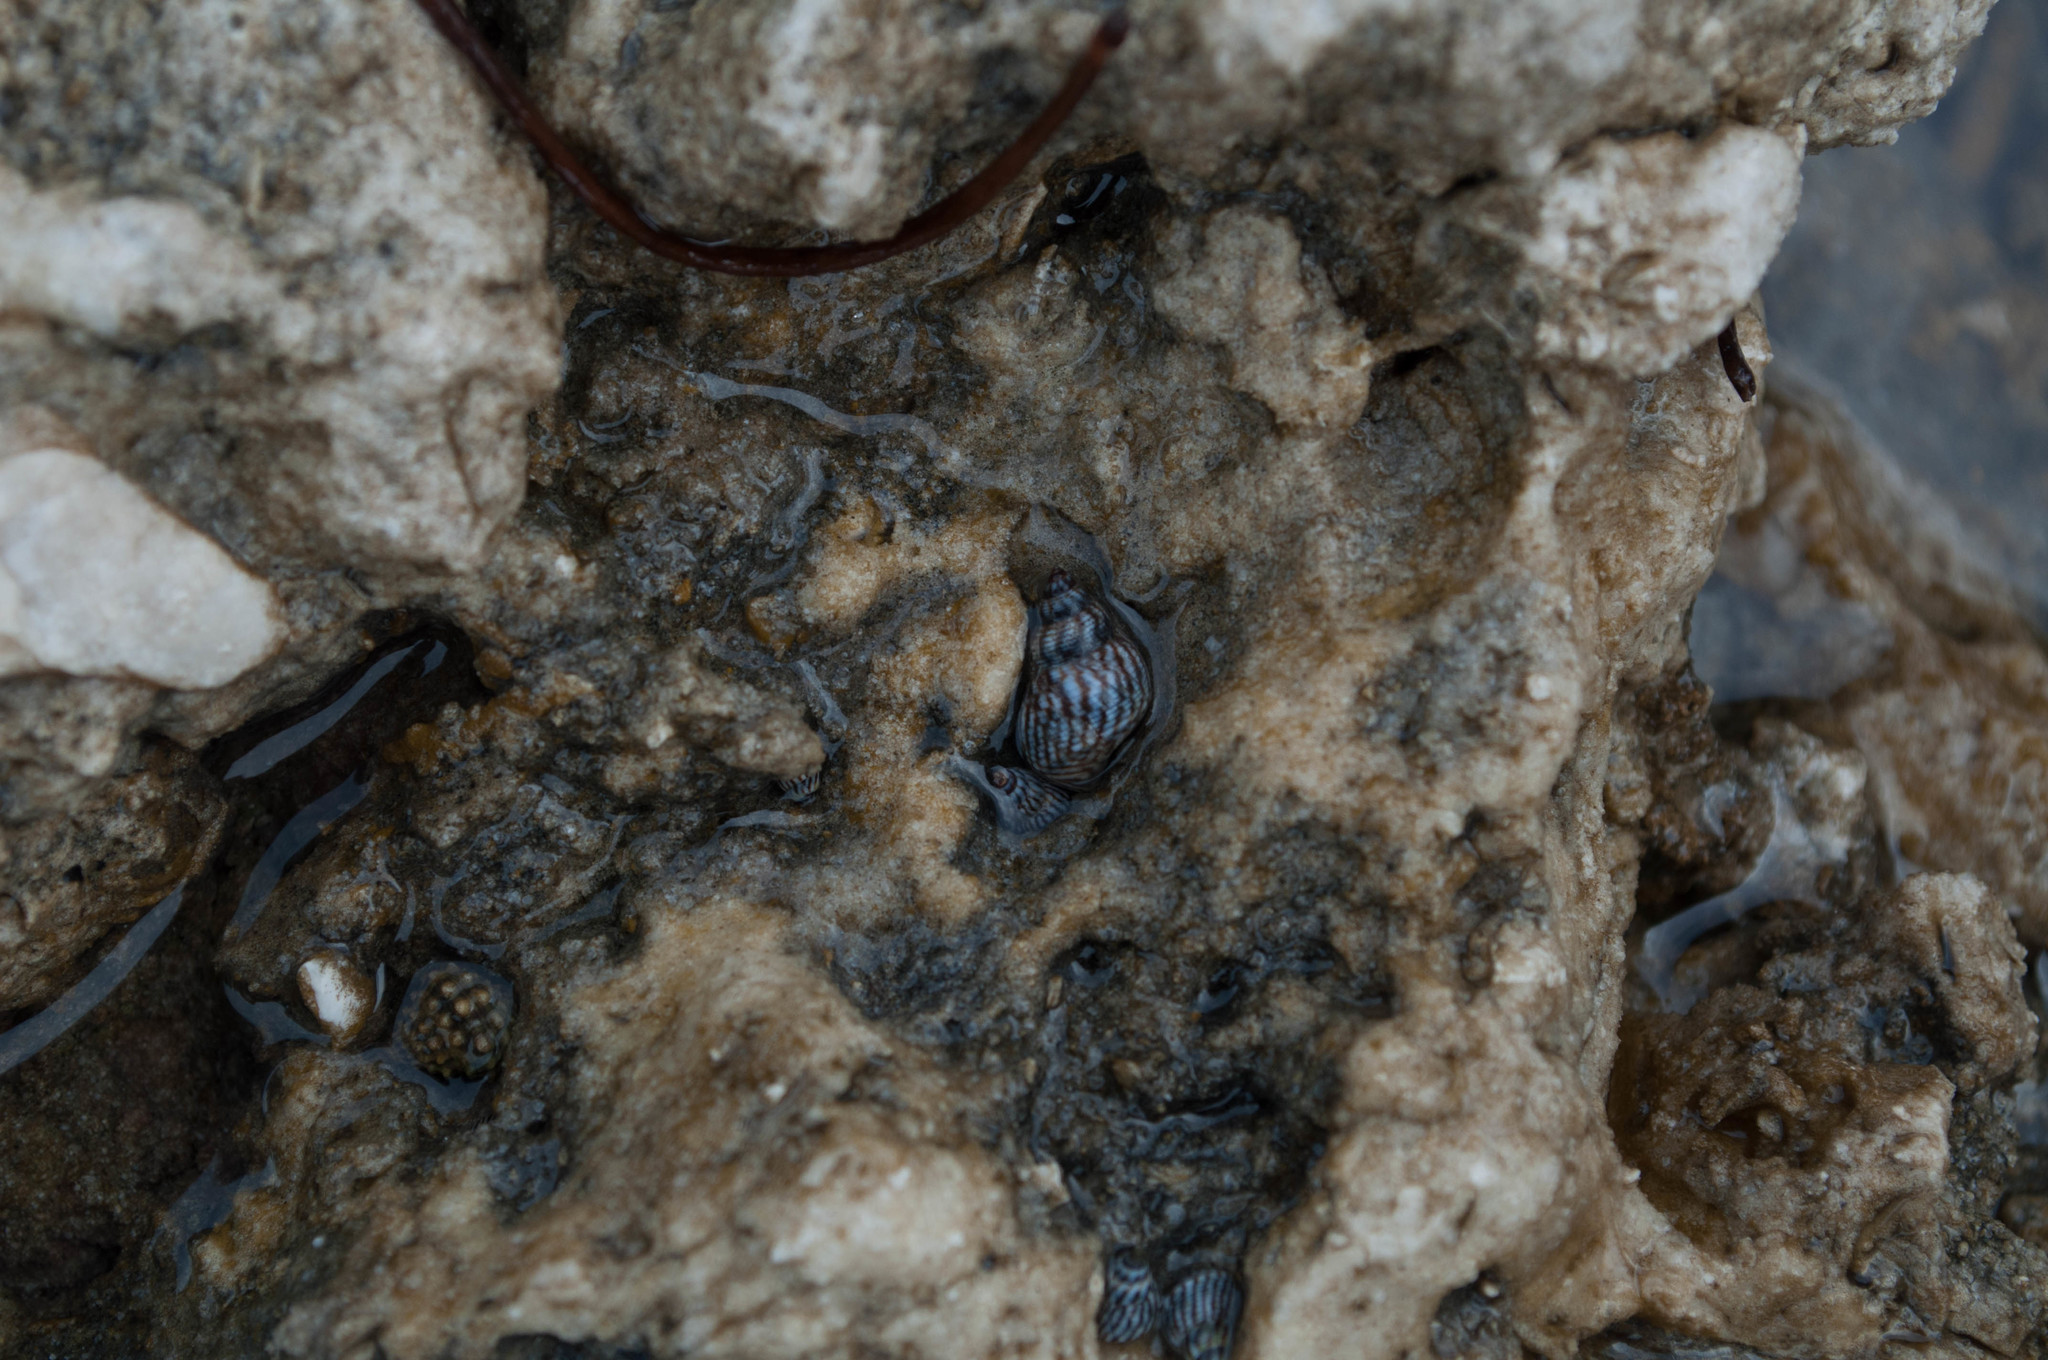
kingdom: Animalia
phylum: Mollusca
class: Gastropoda
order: Littorinimorpha
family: Littorinidae
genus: Echinolittorina
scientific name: Echinolittorina ziczac
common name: Zebra periwinkle
